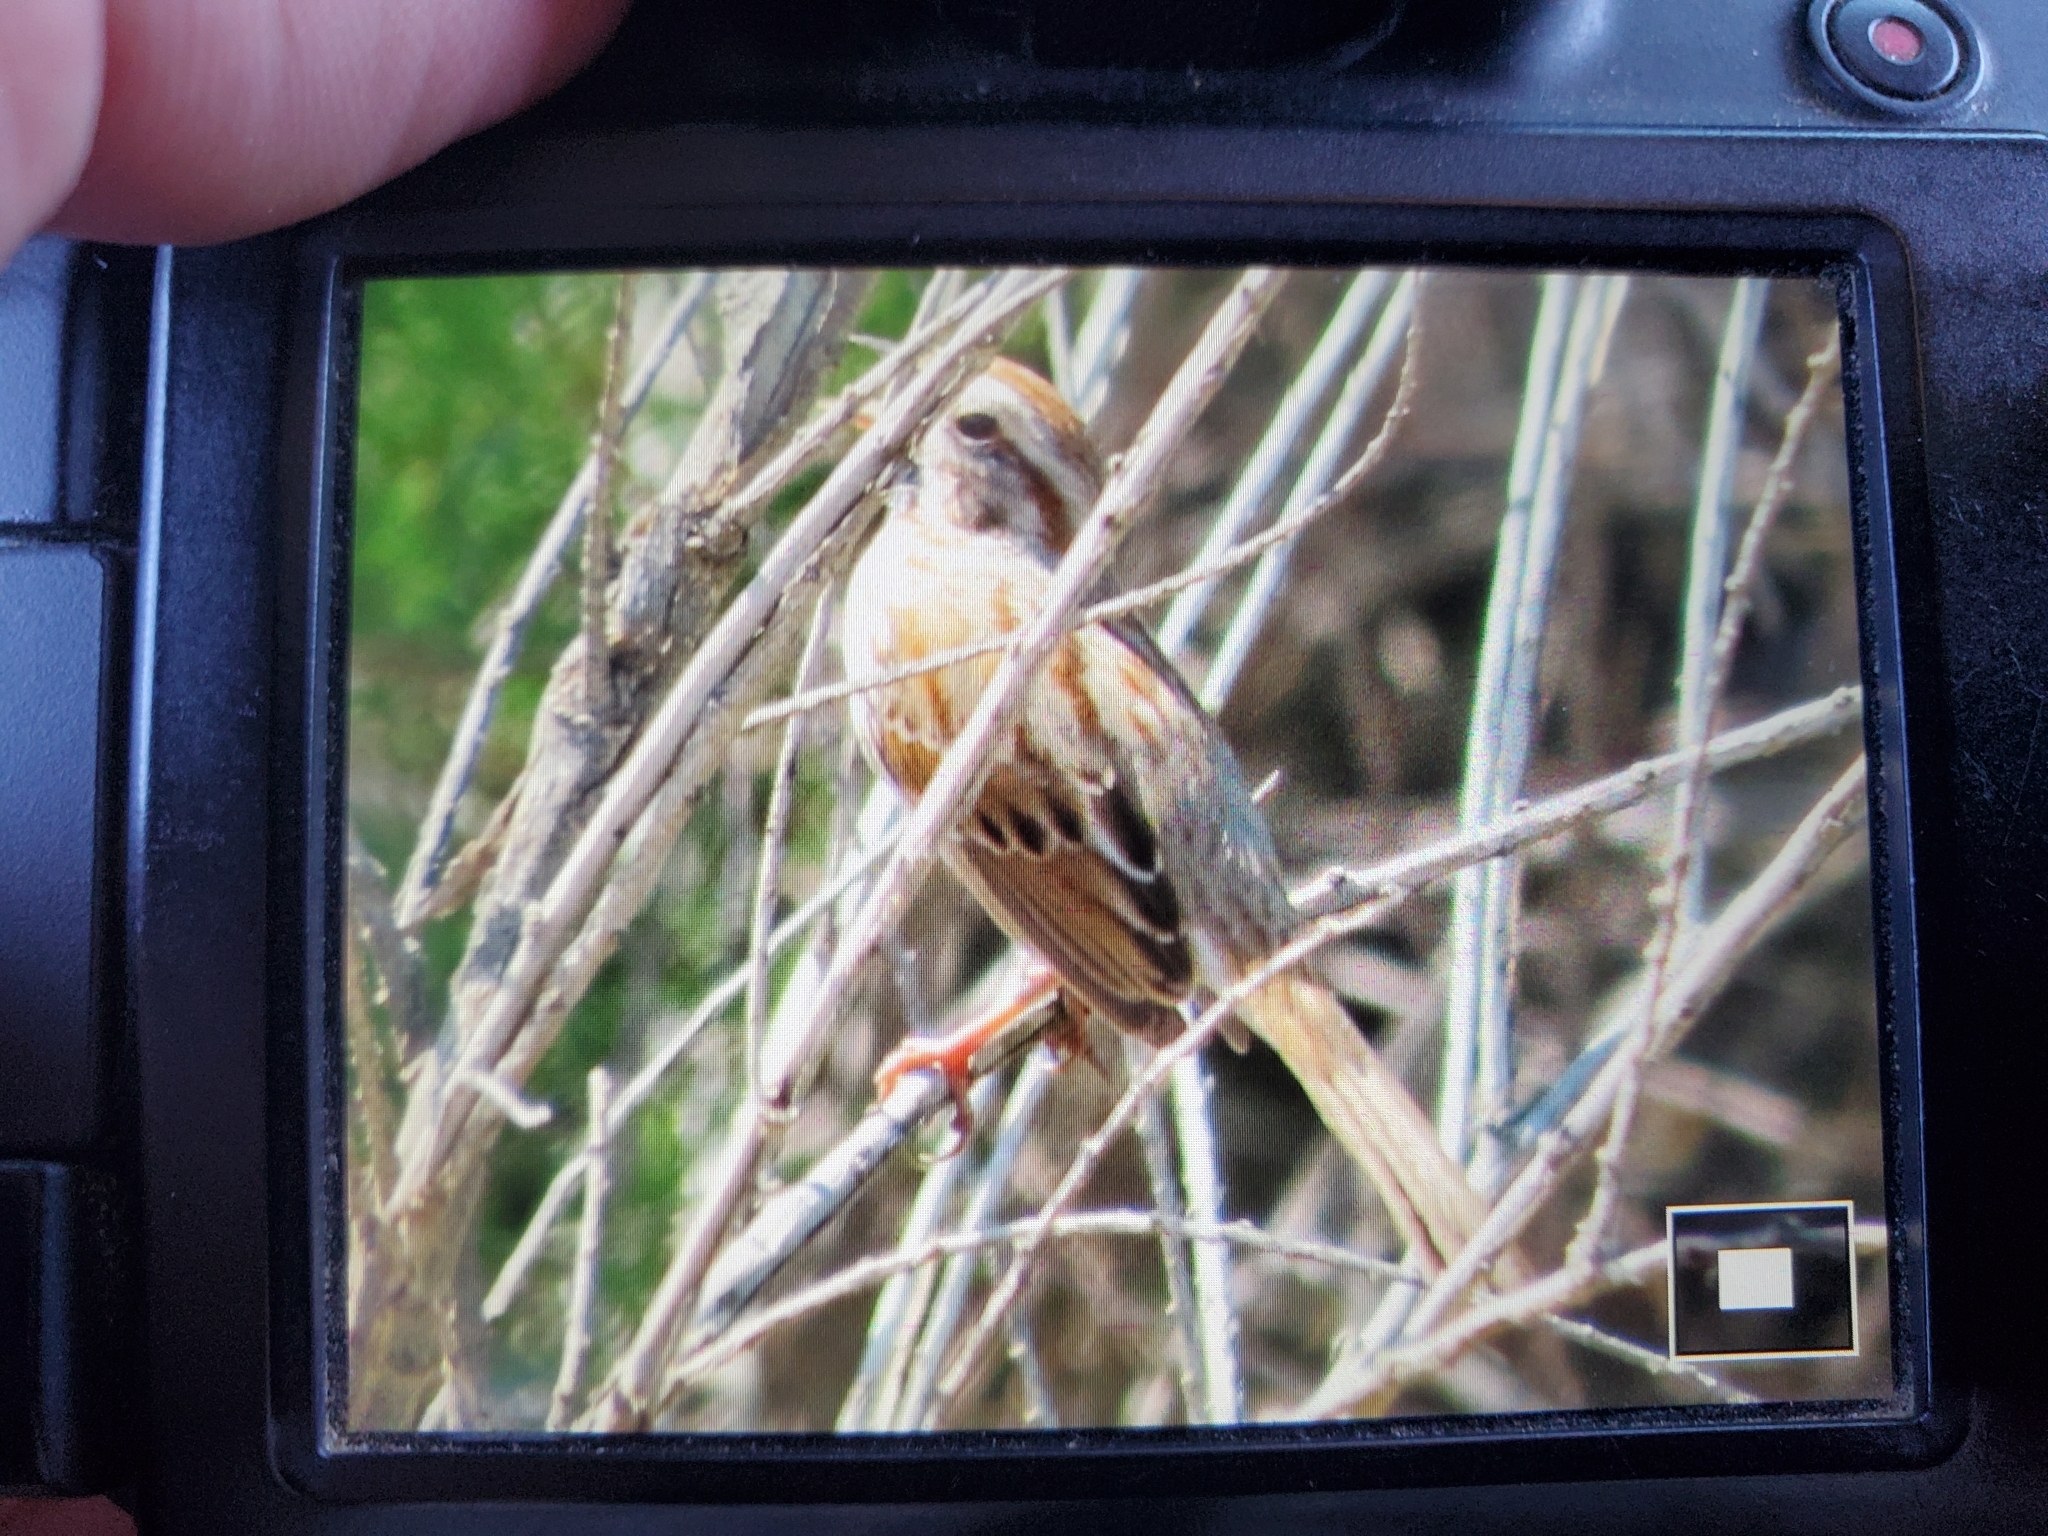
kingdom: Animalia
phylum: Chordata
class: Aves
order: Passeriformes
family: Passerellidae
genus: Melospiza
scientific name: Melospiza melodia
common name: Song sparrow
